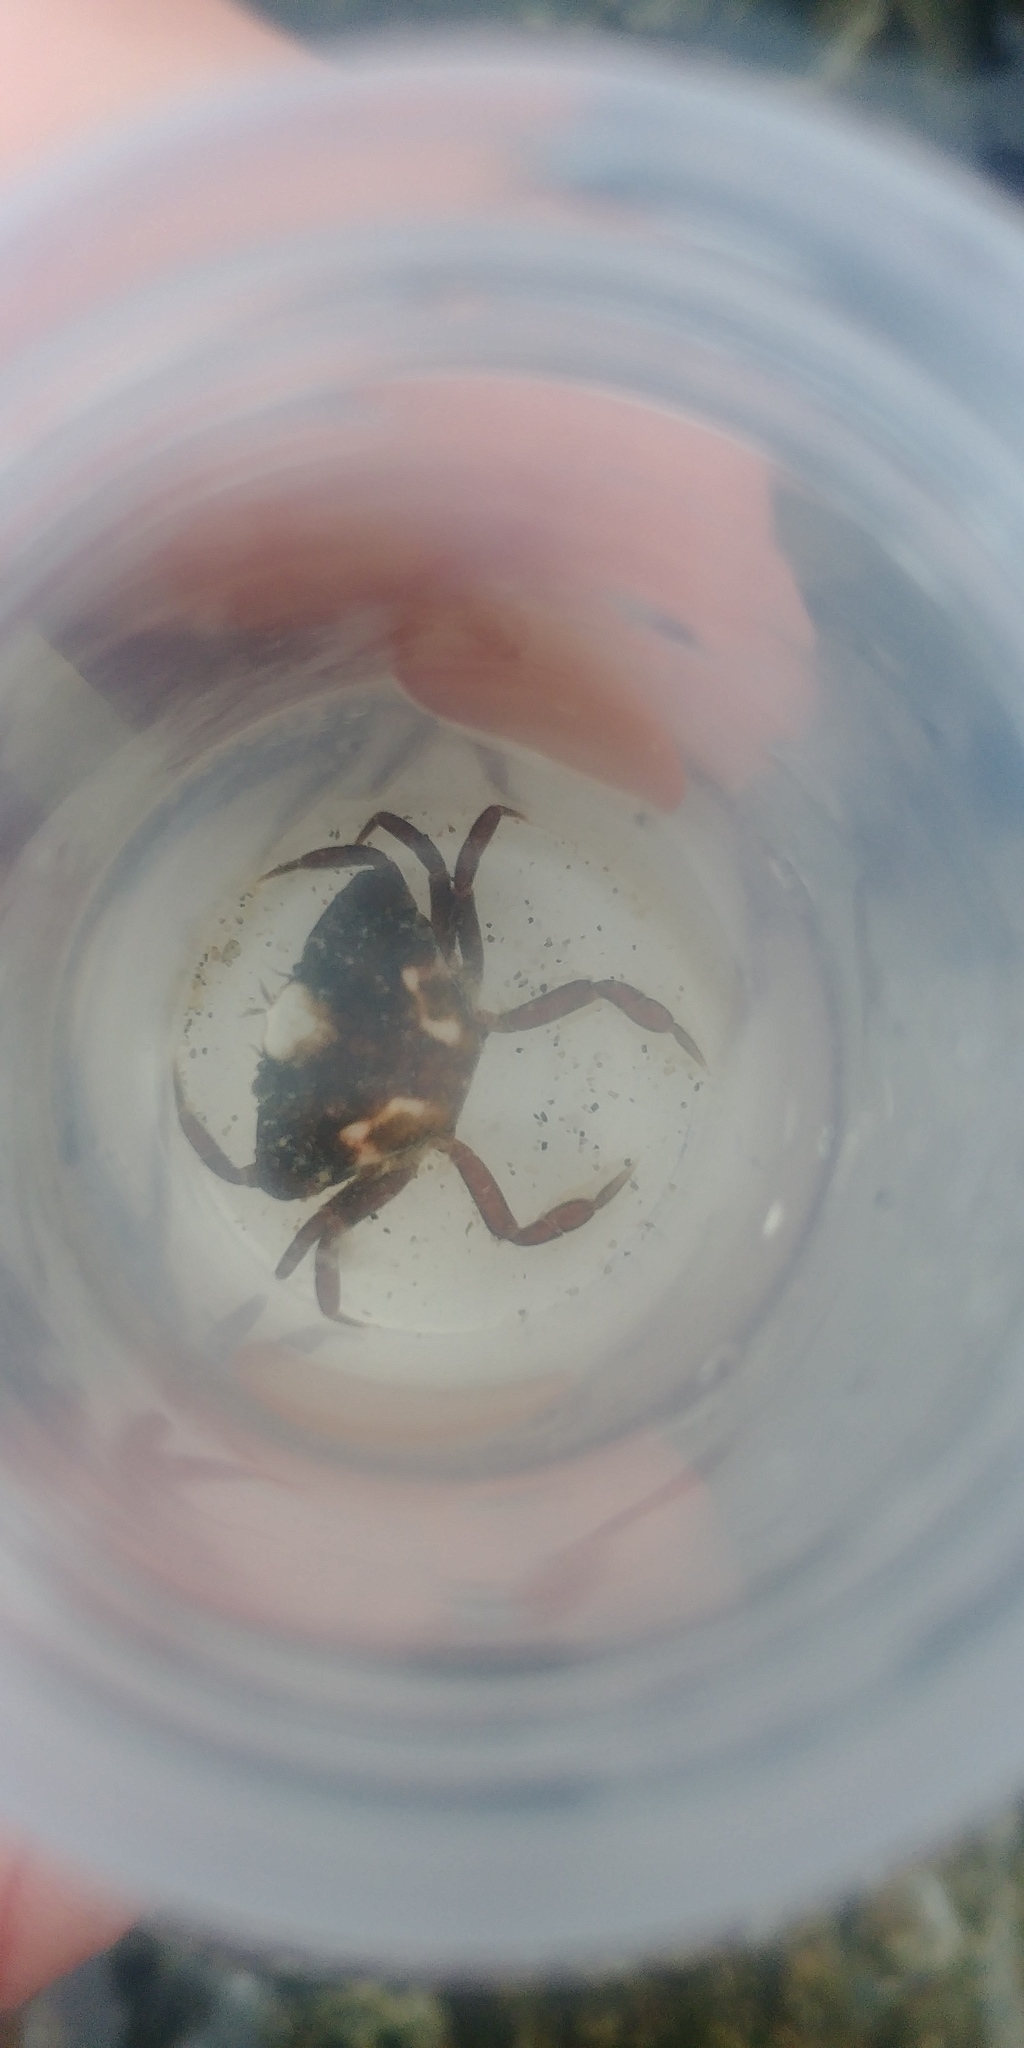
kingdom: Animalia
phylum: Arthropoda
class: Malacostraca
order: Decapoda
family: Carcinidae
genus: Carcinus
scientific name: Carcinus maenas
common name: European green crab
